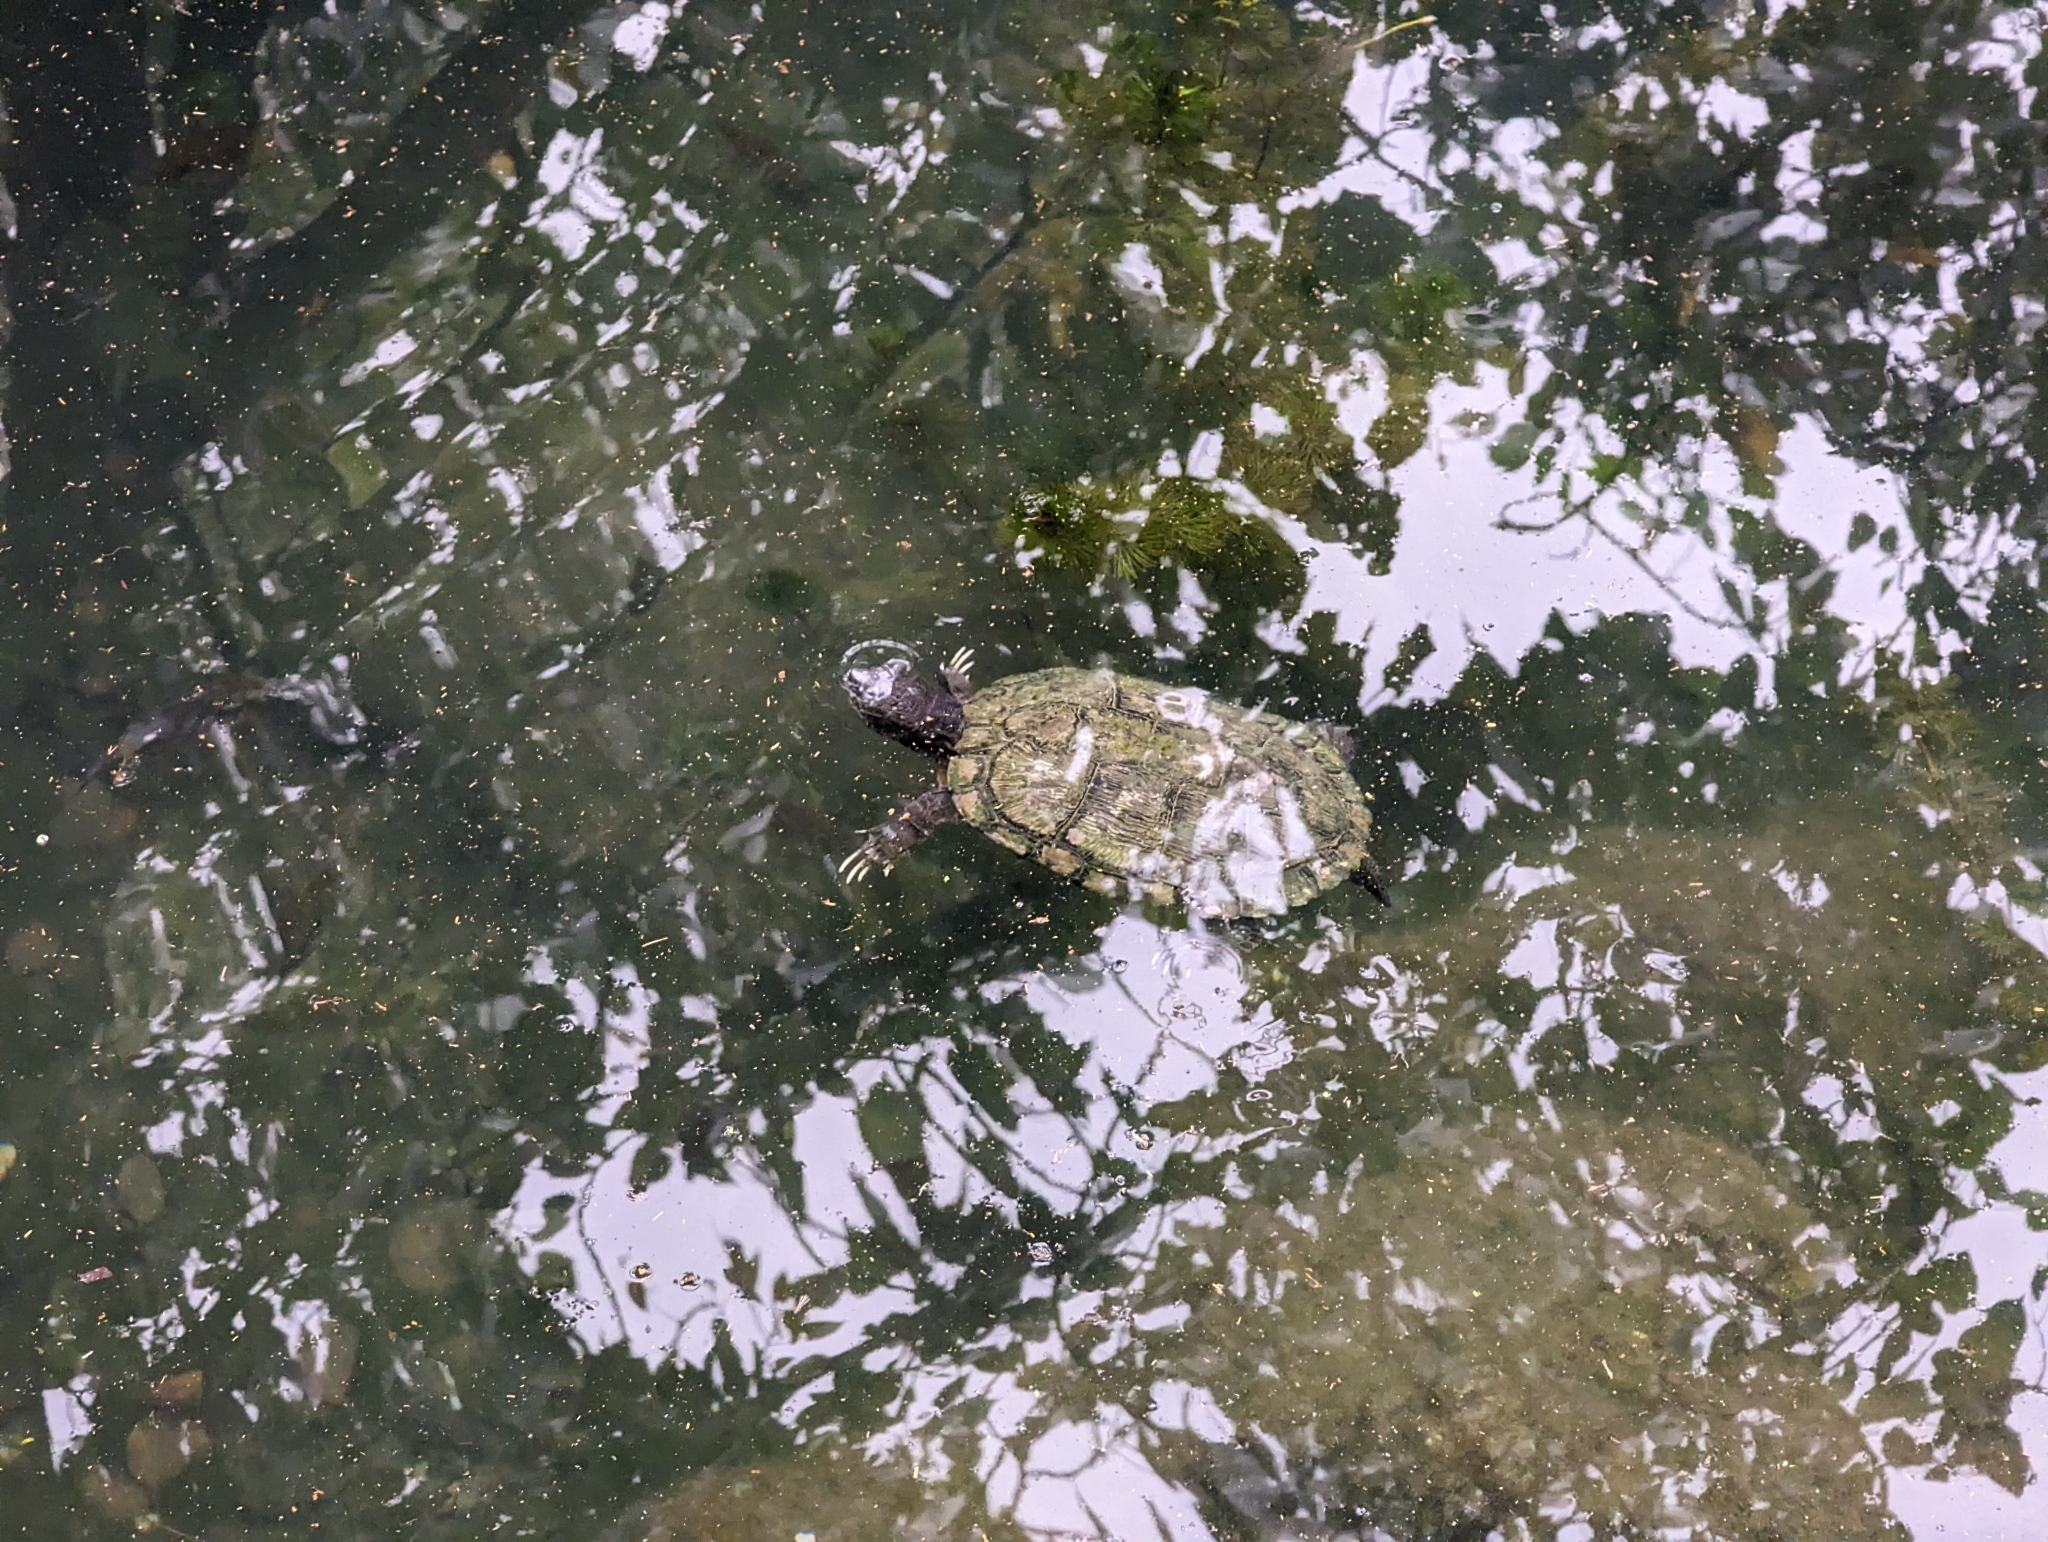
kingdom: Animalia
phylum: Chordata
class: Testudines
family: Emydidae
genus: Trachemys
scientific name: Trachemys scripta
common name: Slider
